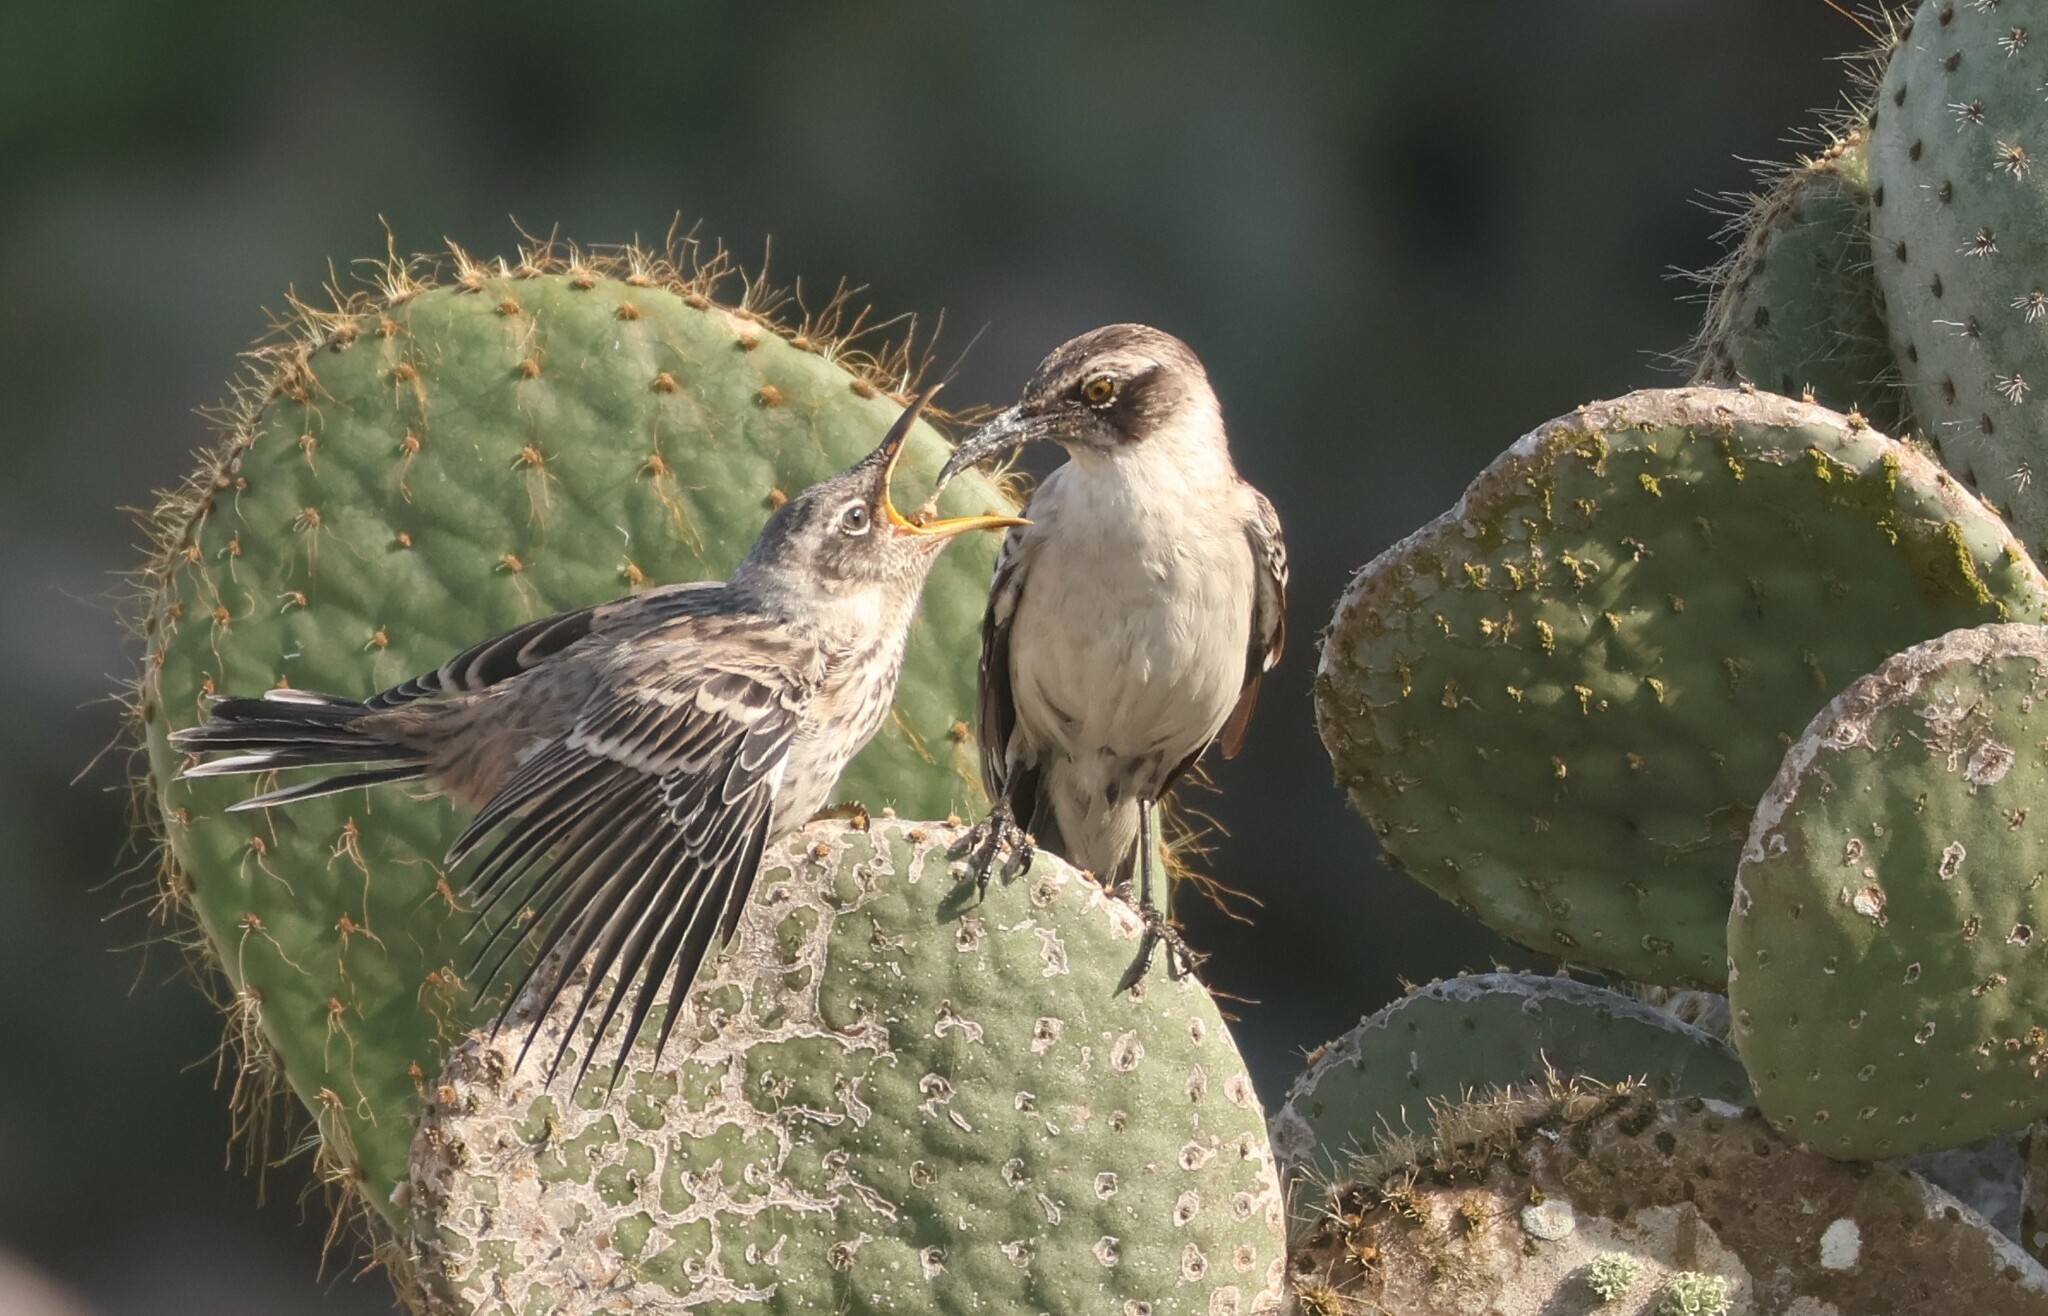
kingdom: Animalia
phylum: Chordata
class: Aves
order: Passeriformes
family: Mimidae
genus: Mimus
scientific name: Mimus parvulus
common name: Galapagos mockingbird
